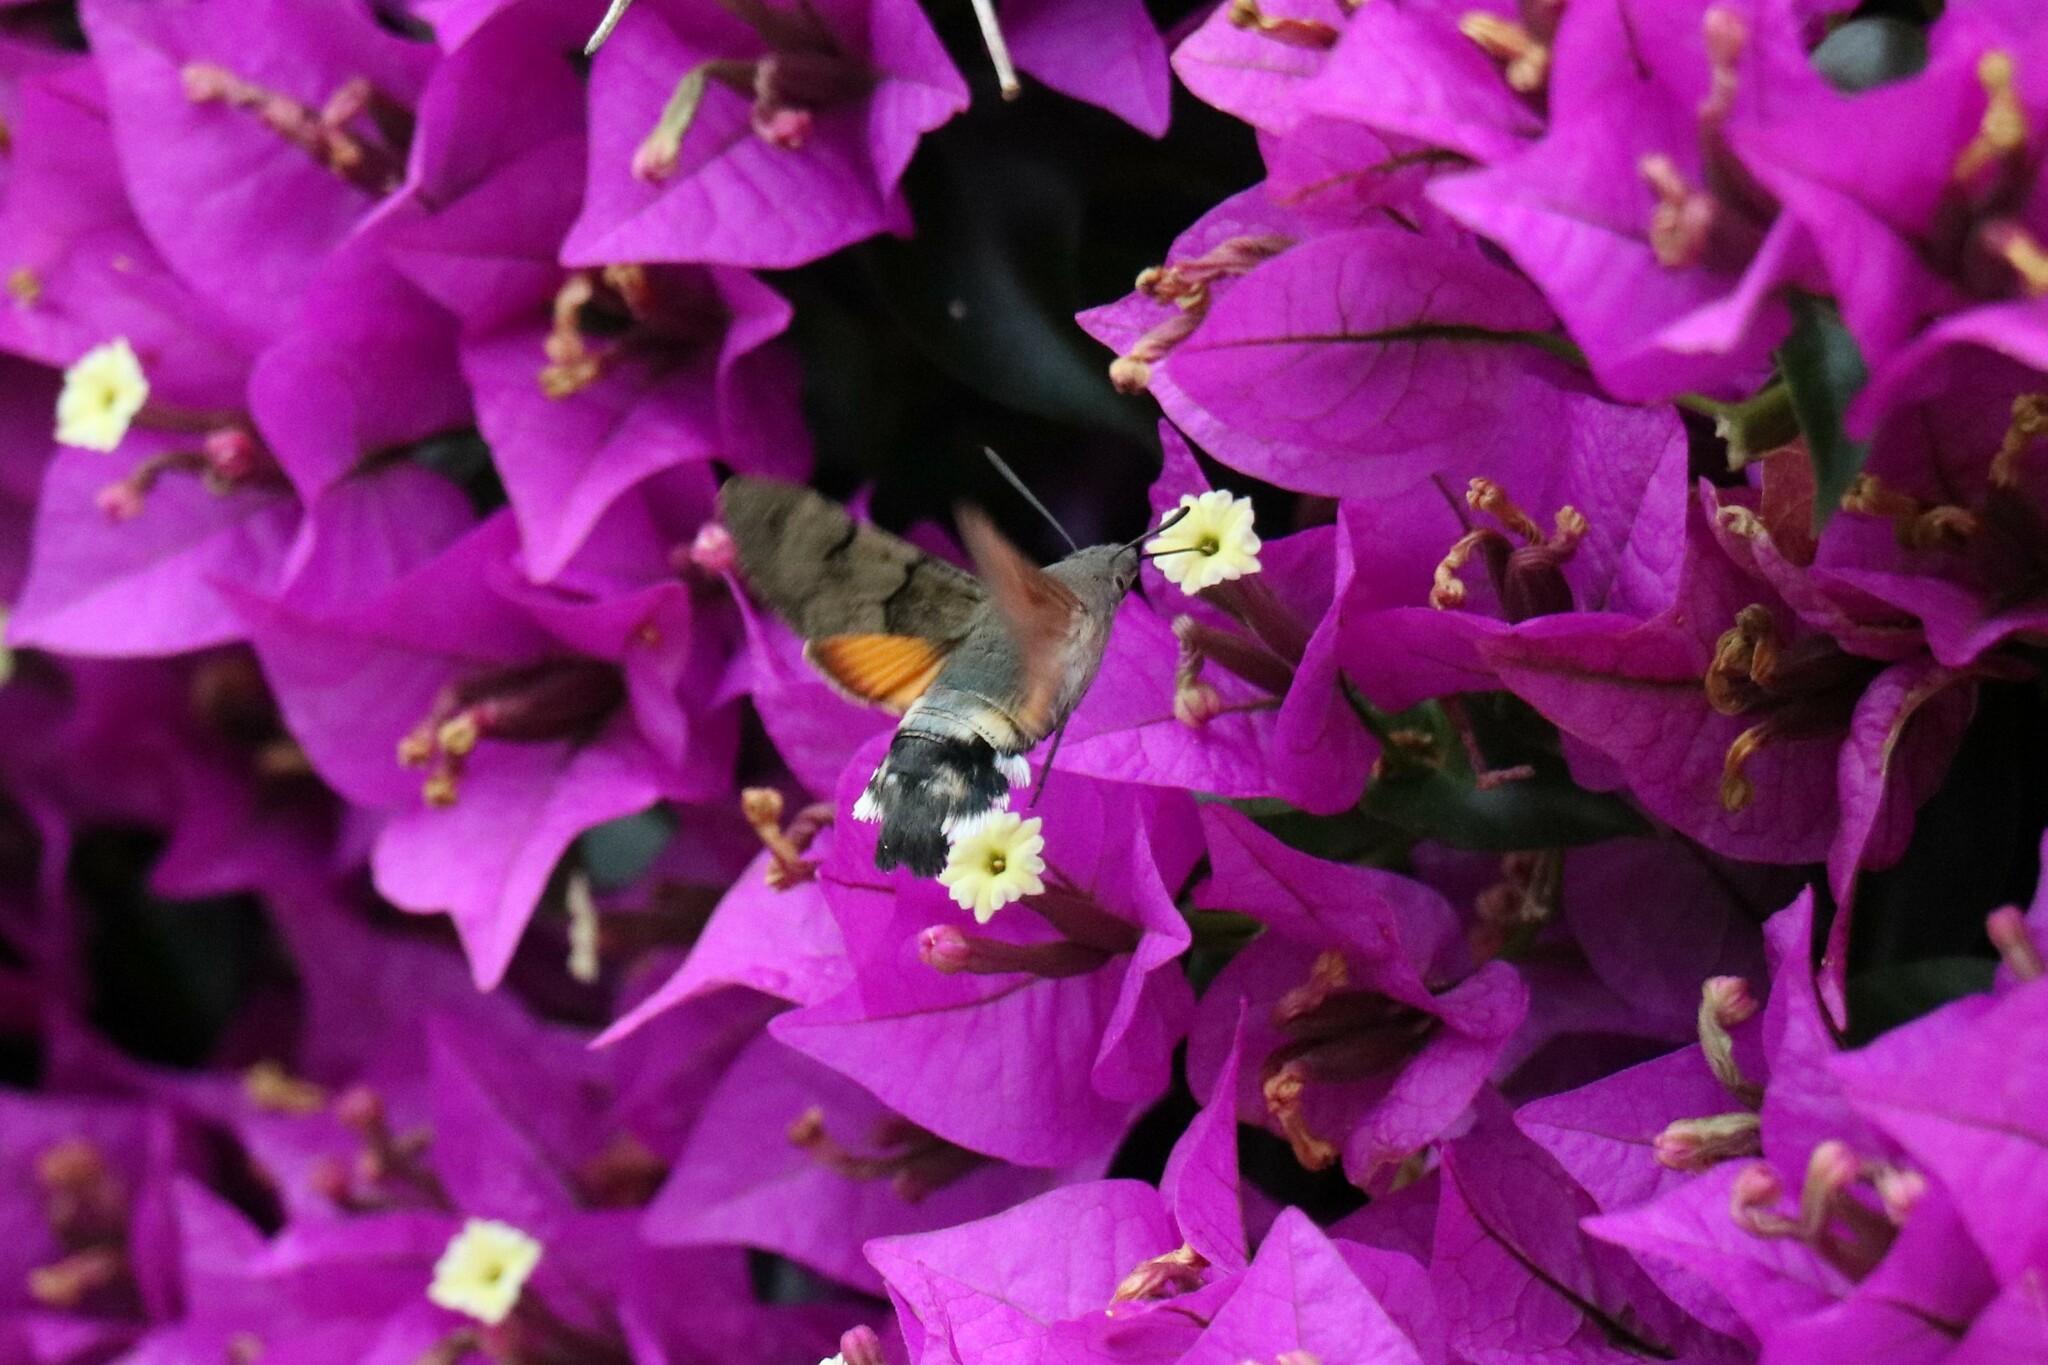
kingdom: Animalia
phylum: Arthropoda
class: Insecta
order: Lepidoptera
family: Sphingidae
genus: Macroglossum
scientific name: Macroglossum stellatarum
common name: Humming-bird hawk-moth
